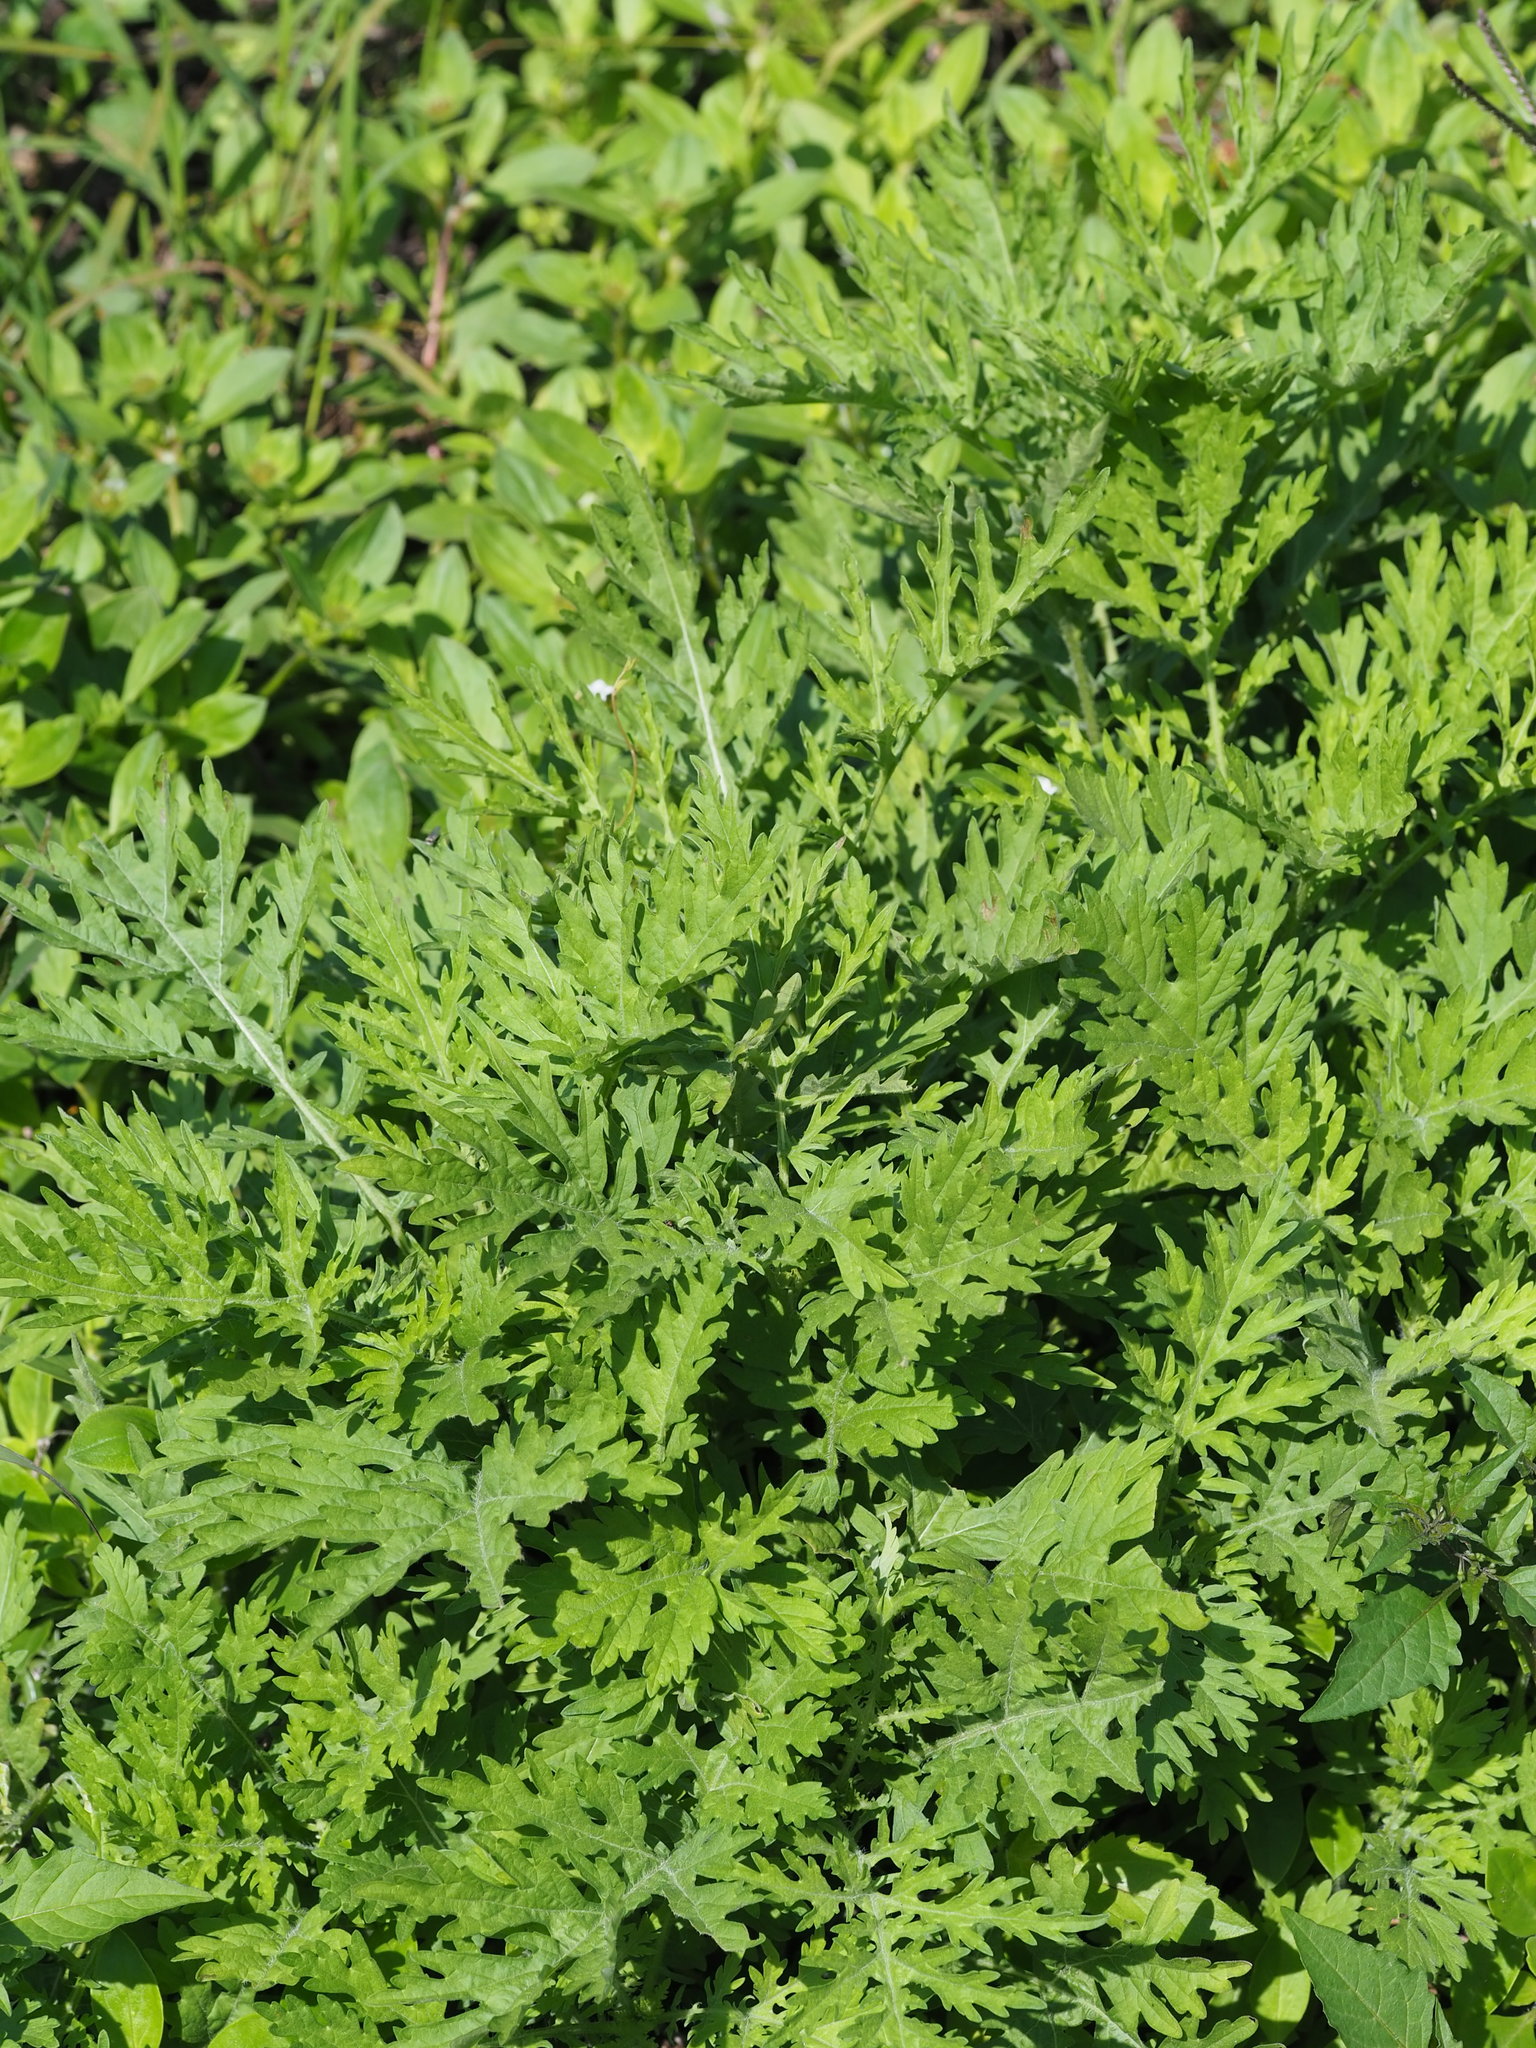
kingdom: Plantae
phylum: Tracheophyta
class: Magnoliopsida
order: Asterales
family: Asteraceae
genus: Parthenium
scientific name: Parthenium hysterophorus
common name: Santa maria feverfew
